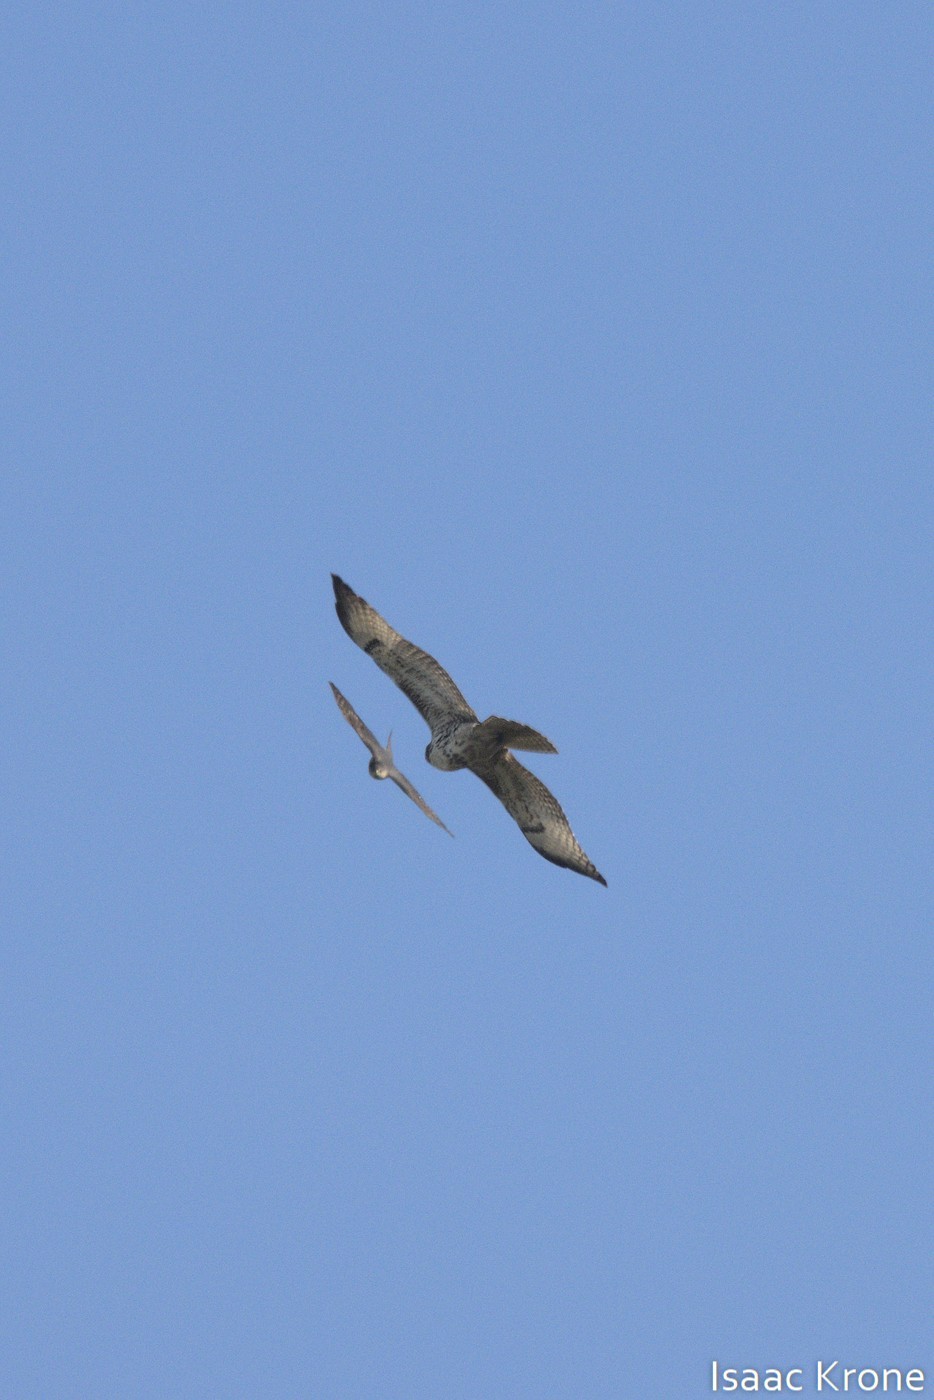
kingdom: Animalia
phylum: Chordata
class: Aves
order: Accipitriformes
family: Accipitridae
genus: Buteo
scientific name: Buteo jamaicensis
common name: Red-tailed hawk
